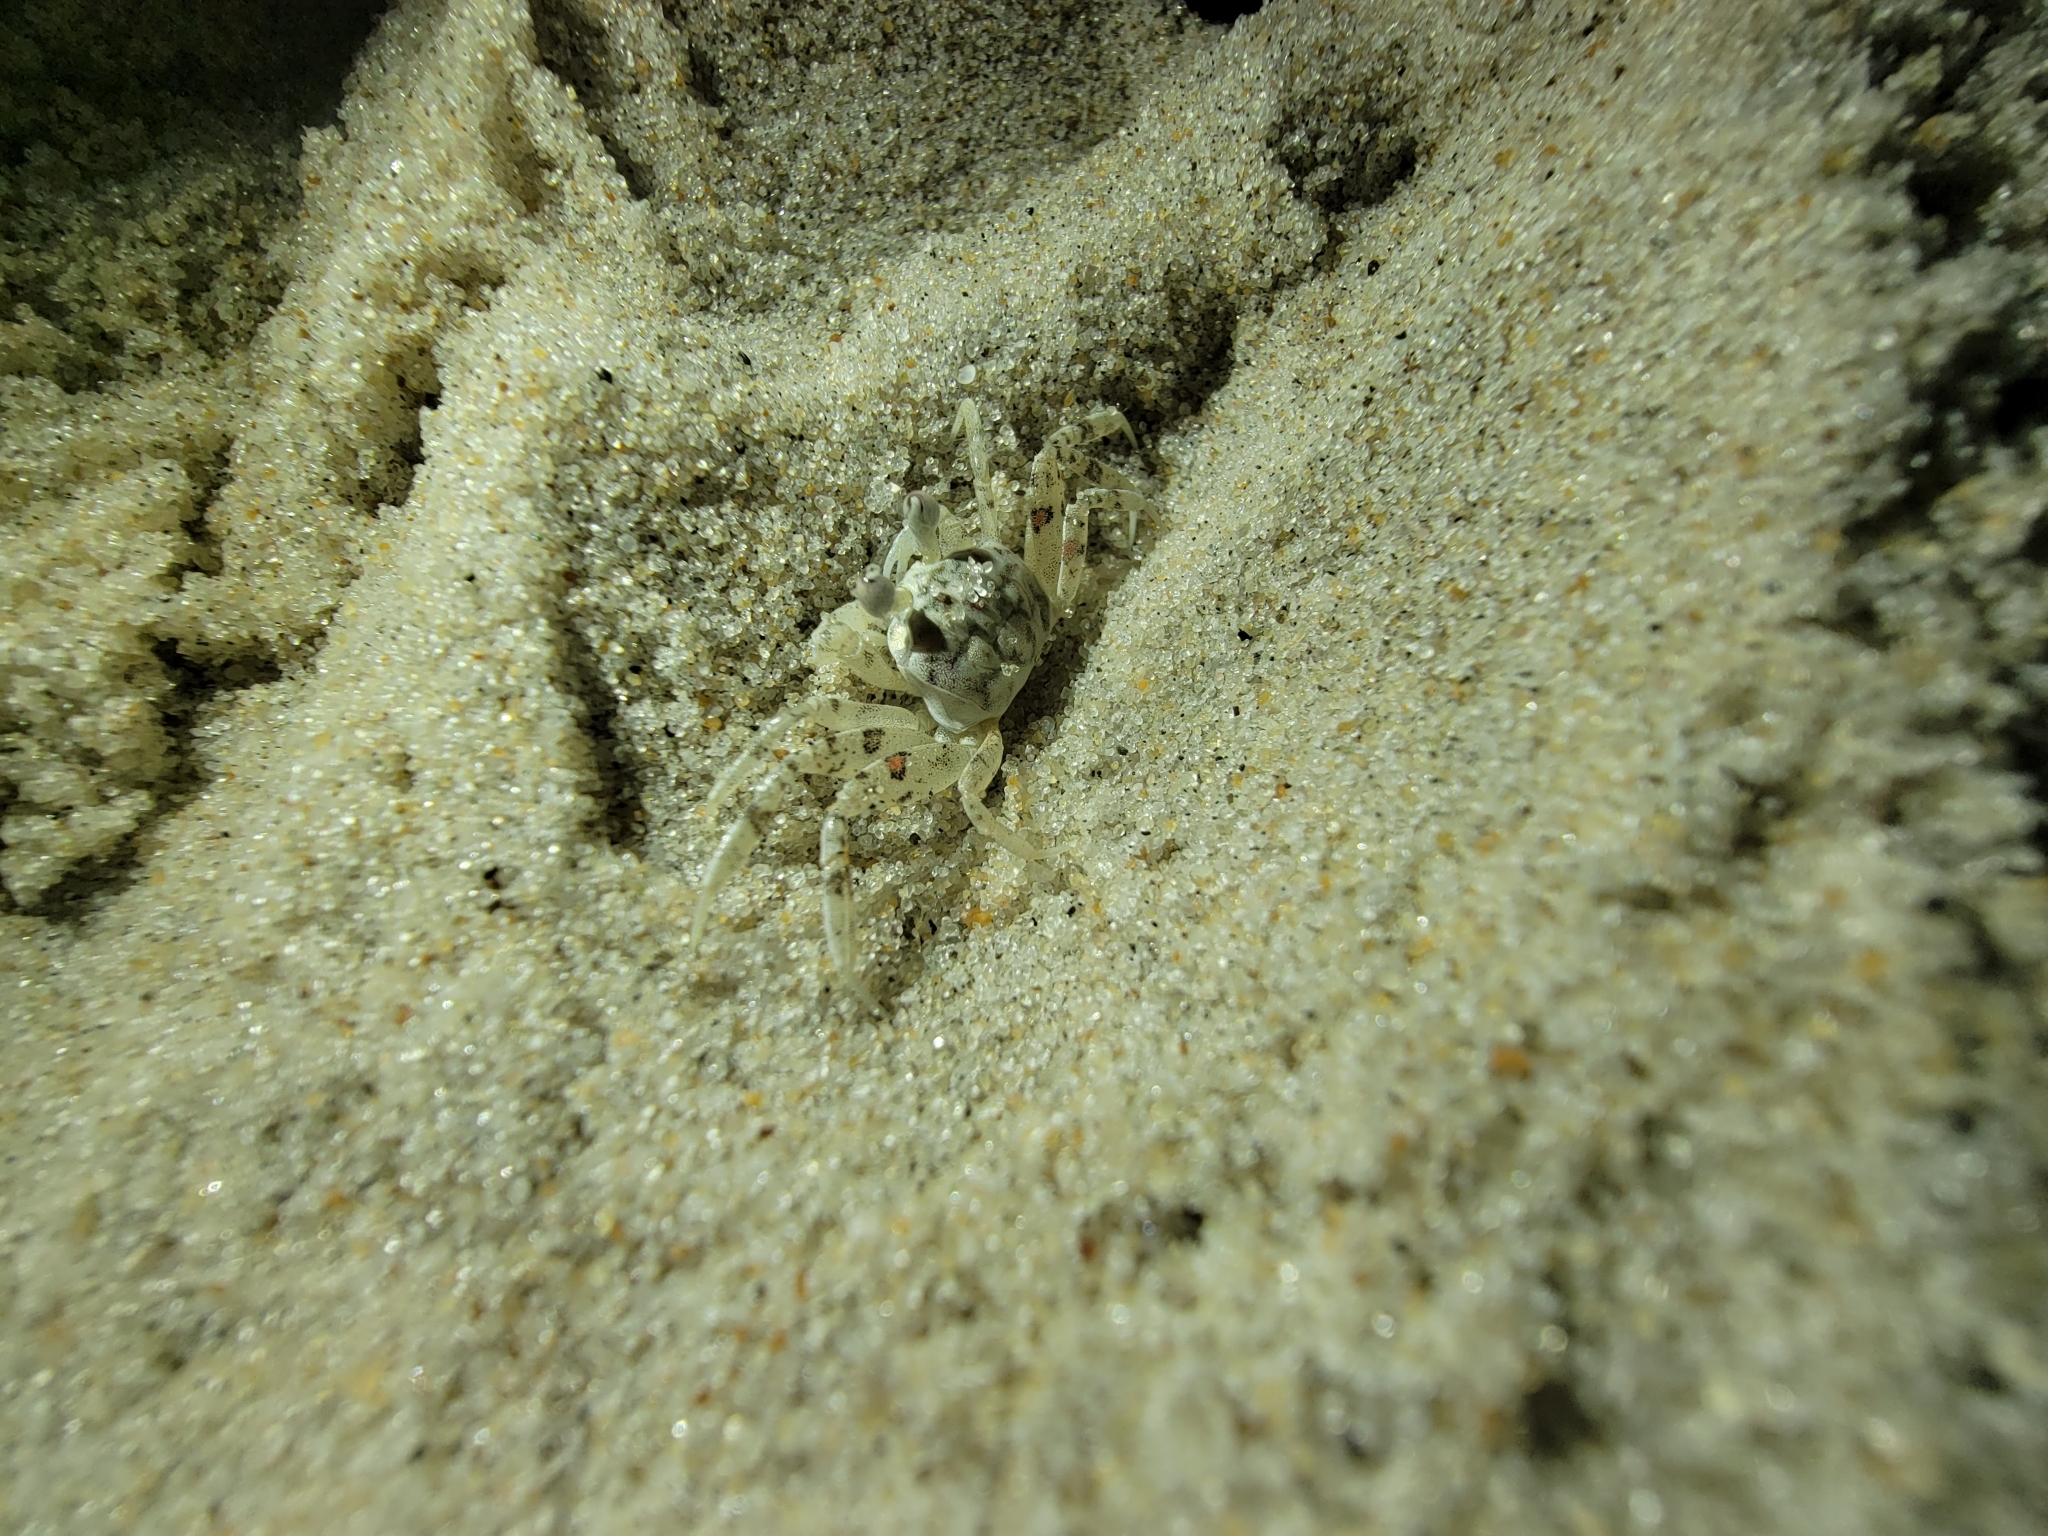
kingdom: Animalia
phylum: Arthropoda
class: Malacostraca
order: Decapoda
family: Ocypodidae
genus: Ocypode
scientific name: Ocypode quadrata
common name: Ghost crab
